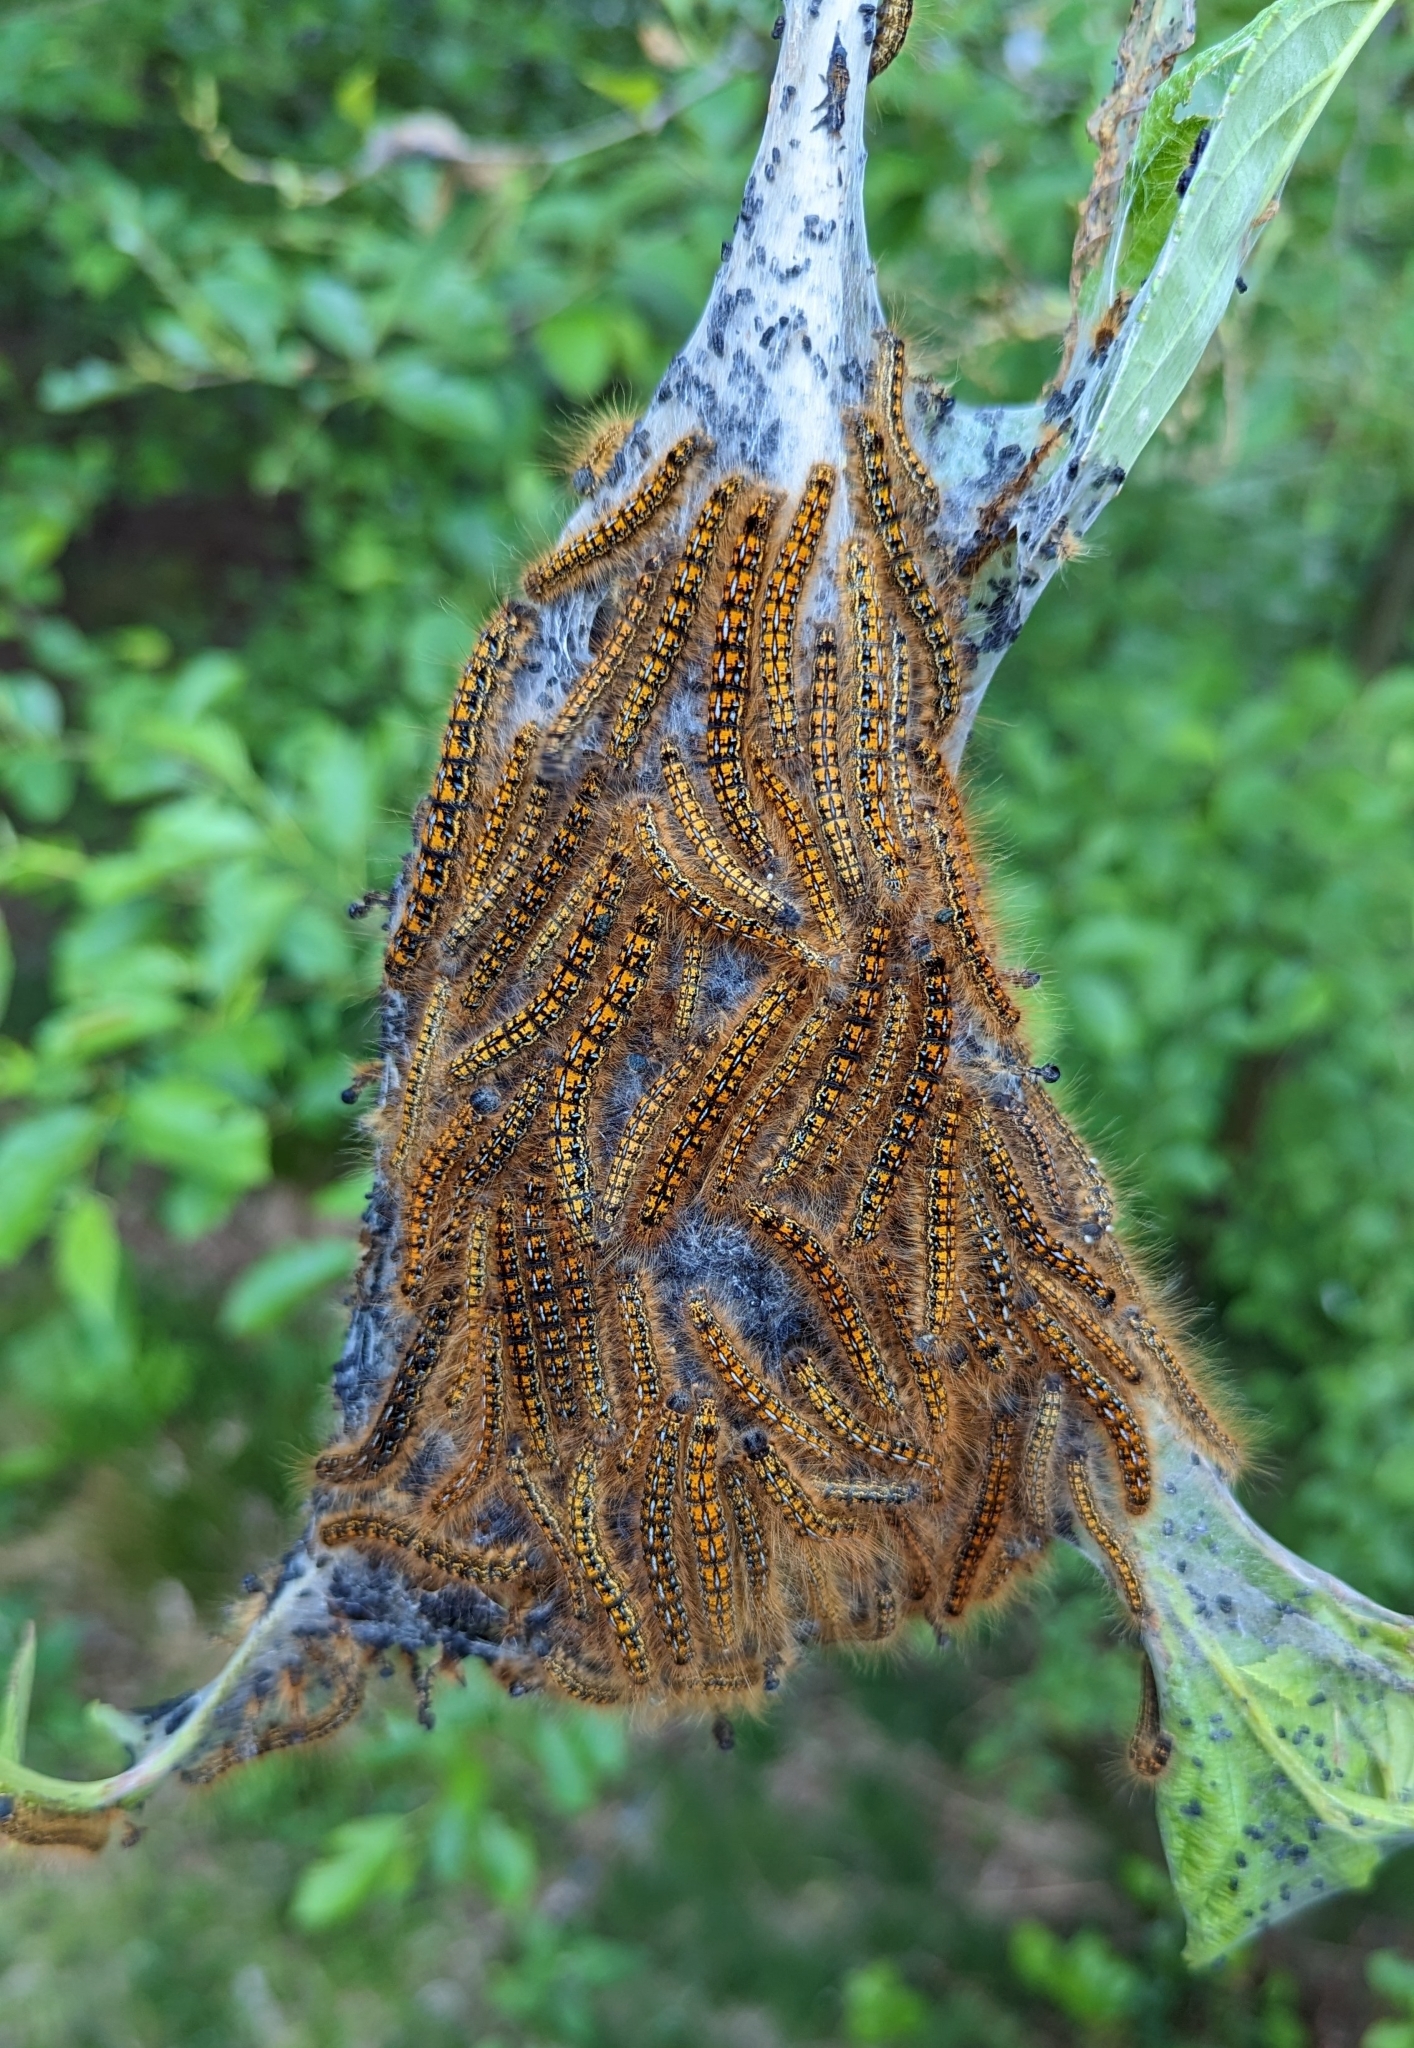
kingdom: Animalia
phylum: Arthropoda
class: Insecta
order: Lepidoptera
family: Lasiocampidae
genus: Malacosoma
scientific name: Malacosoma californica
